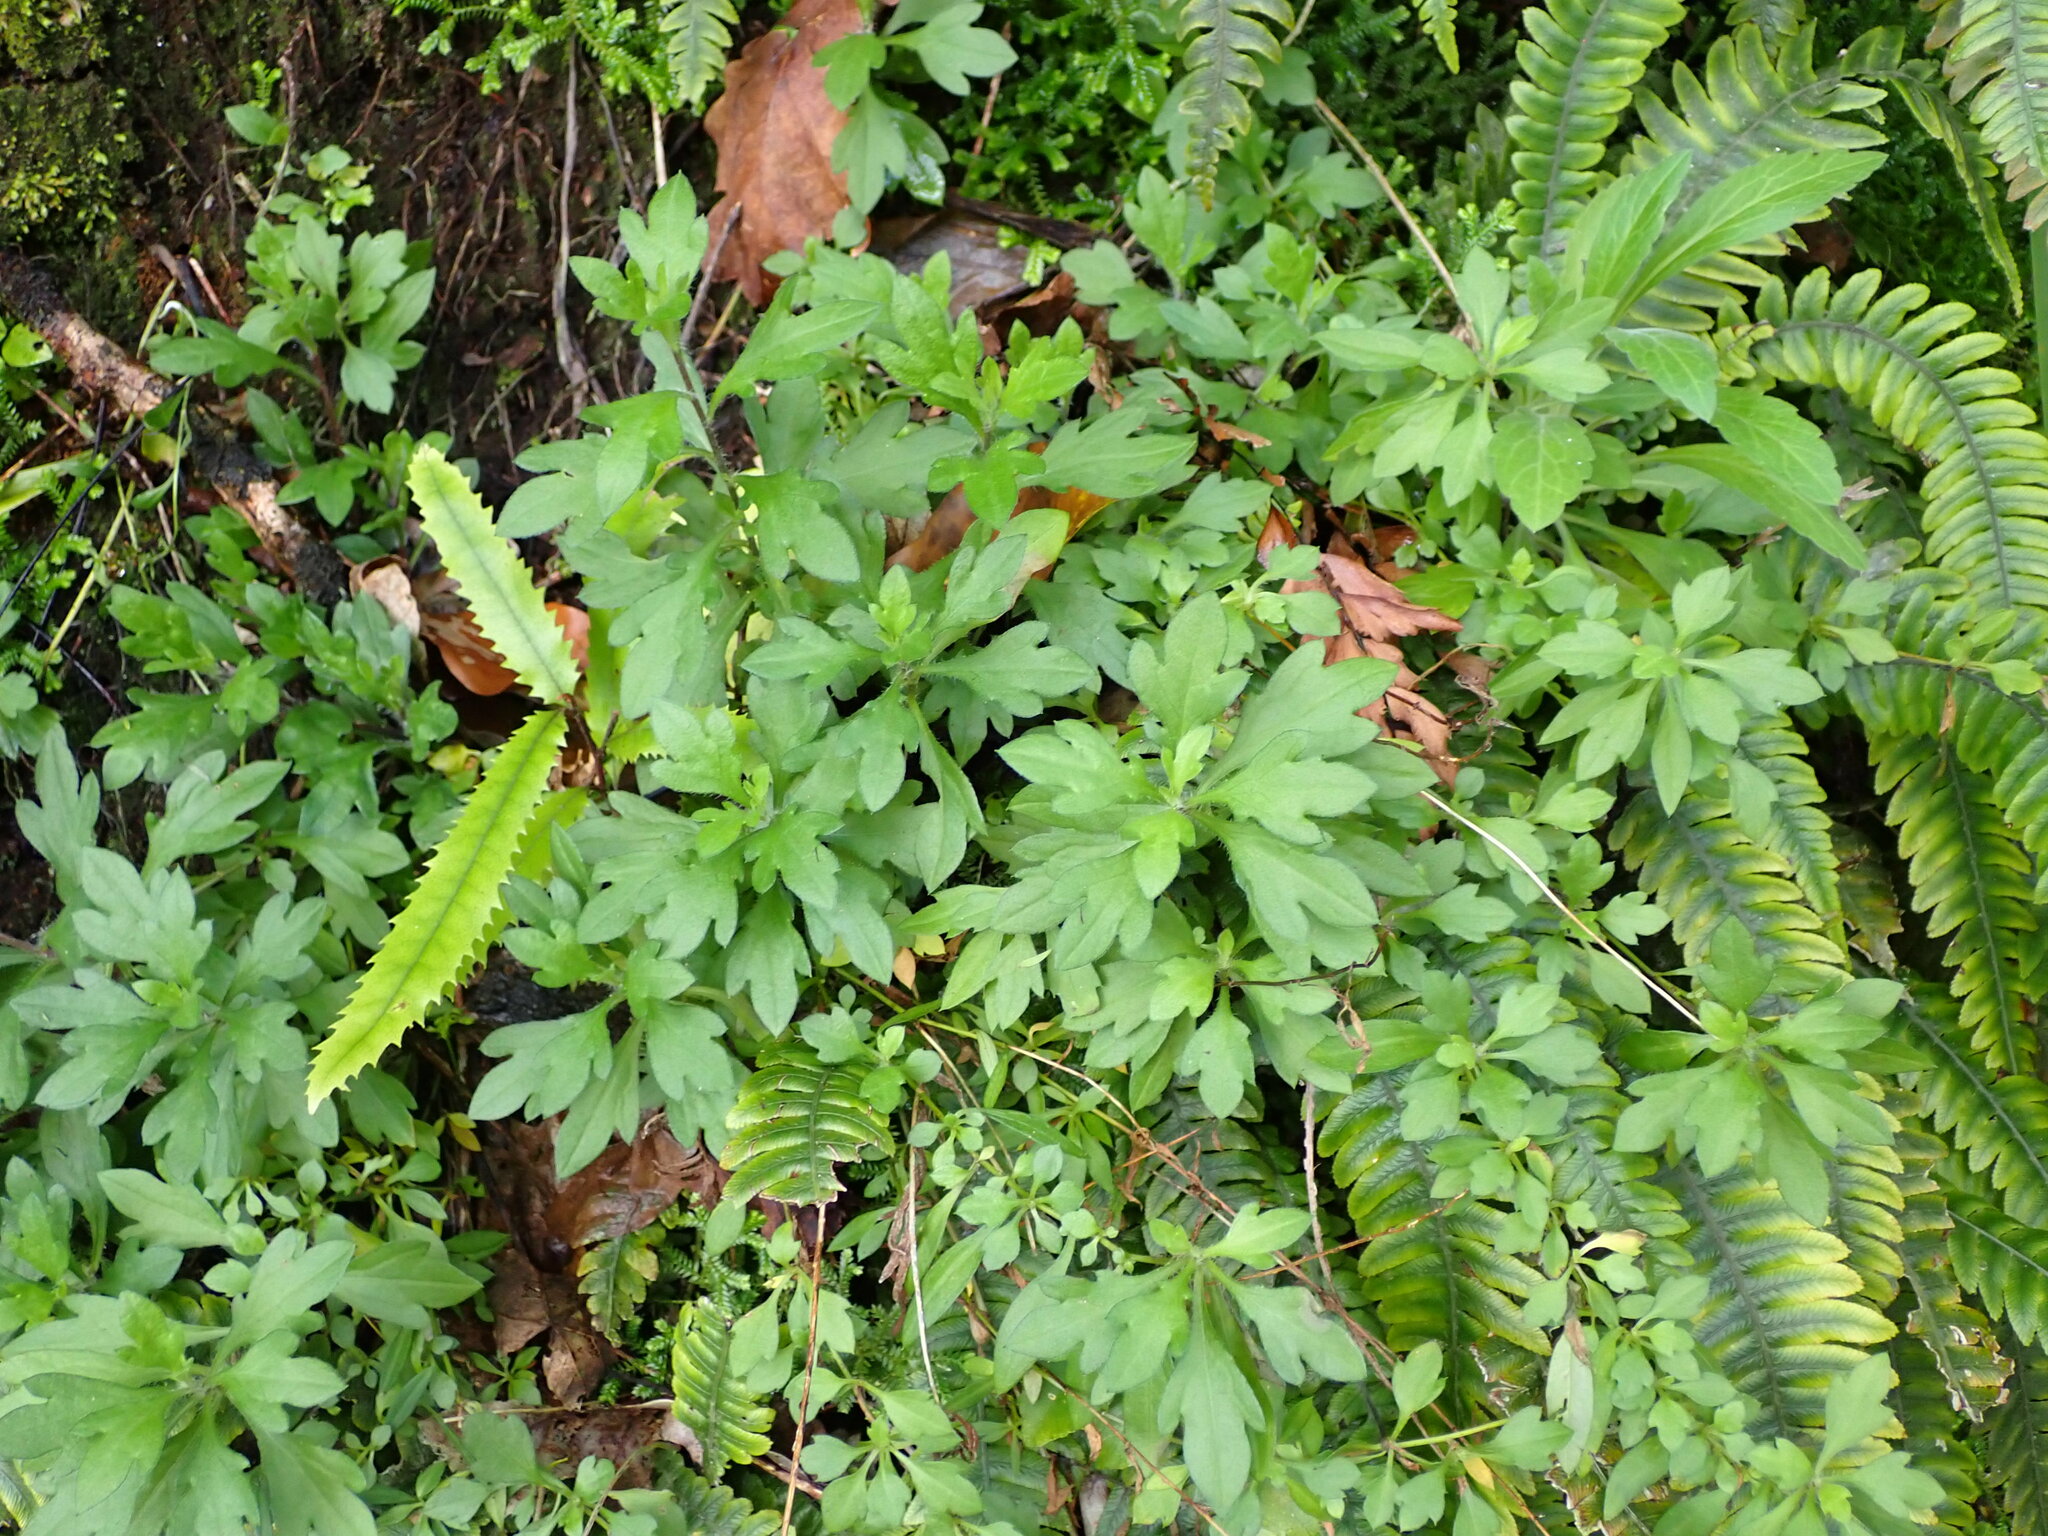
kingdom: Plantae
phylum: Tracheophyta
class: Magnoliopsida
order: Asterales
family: Asteraceae
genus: Erigeron
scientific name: Erigeron karvinskianus
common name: Mexican fleabane
